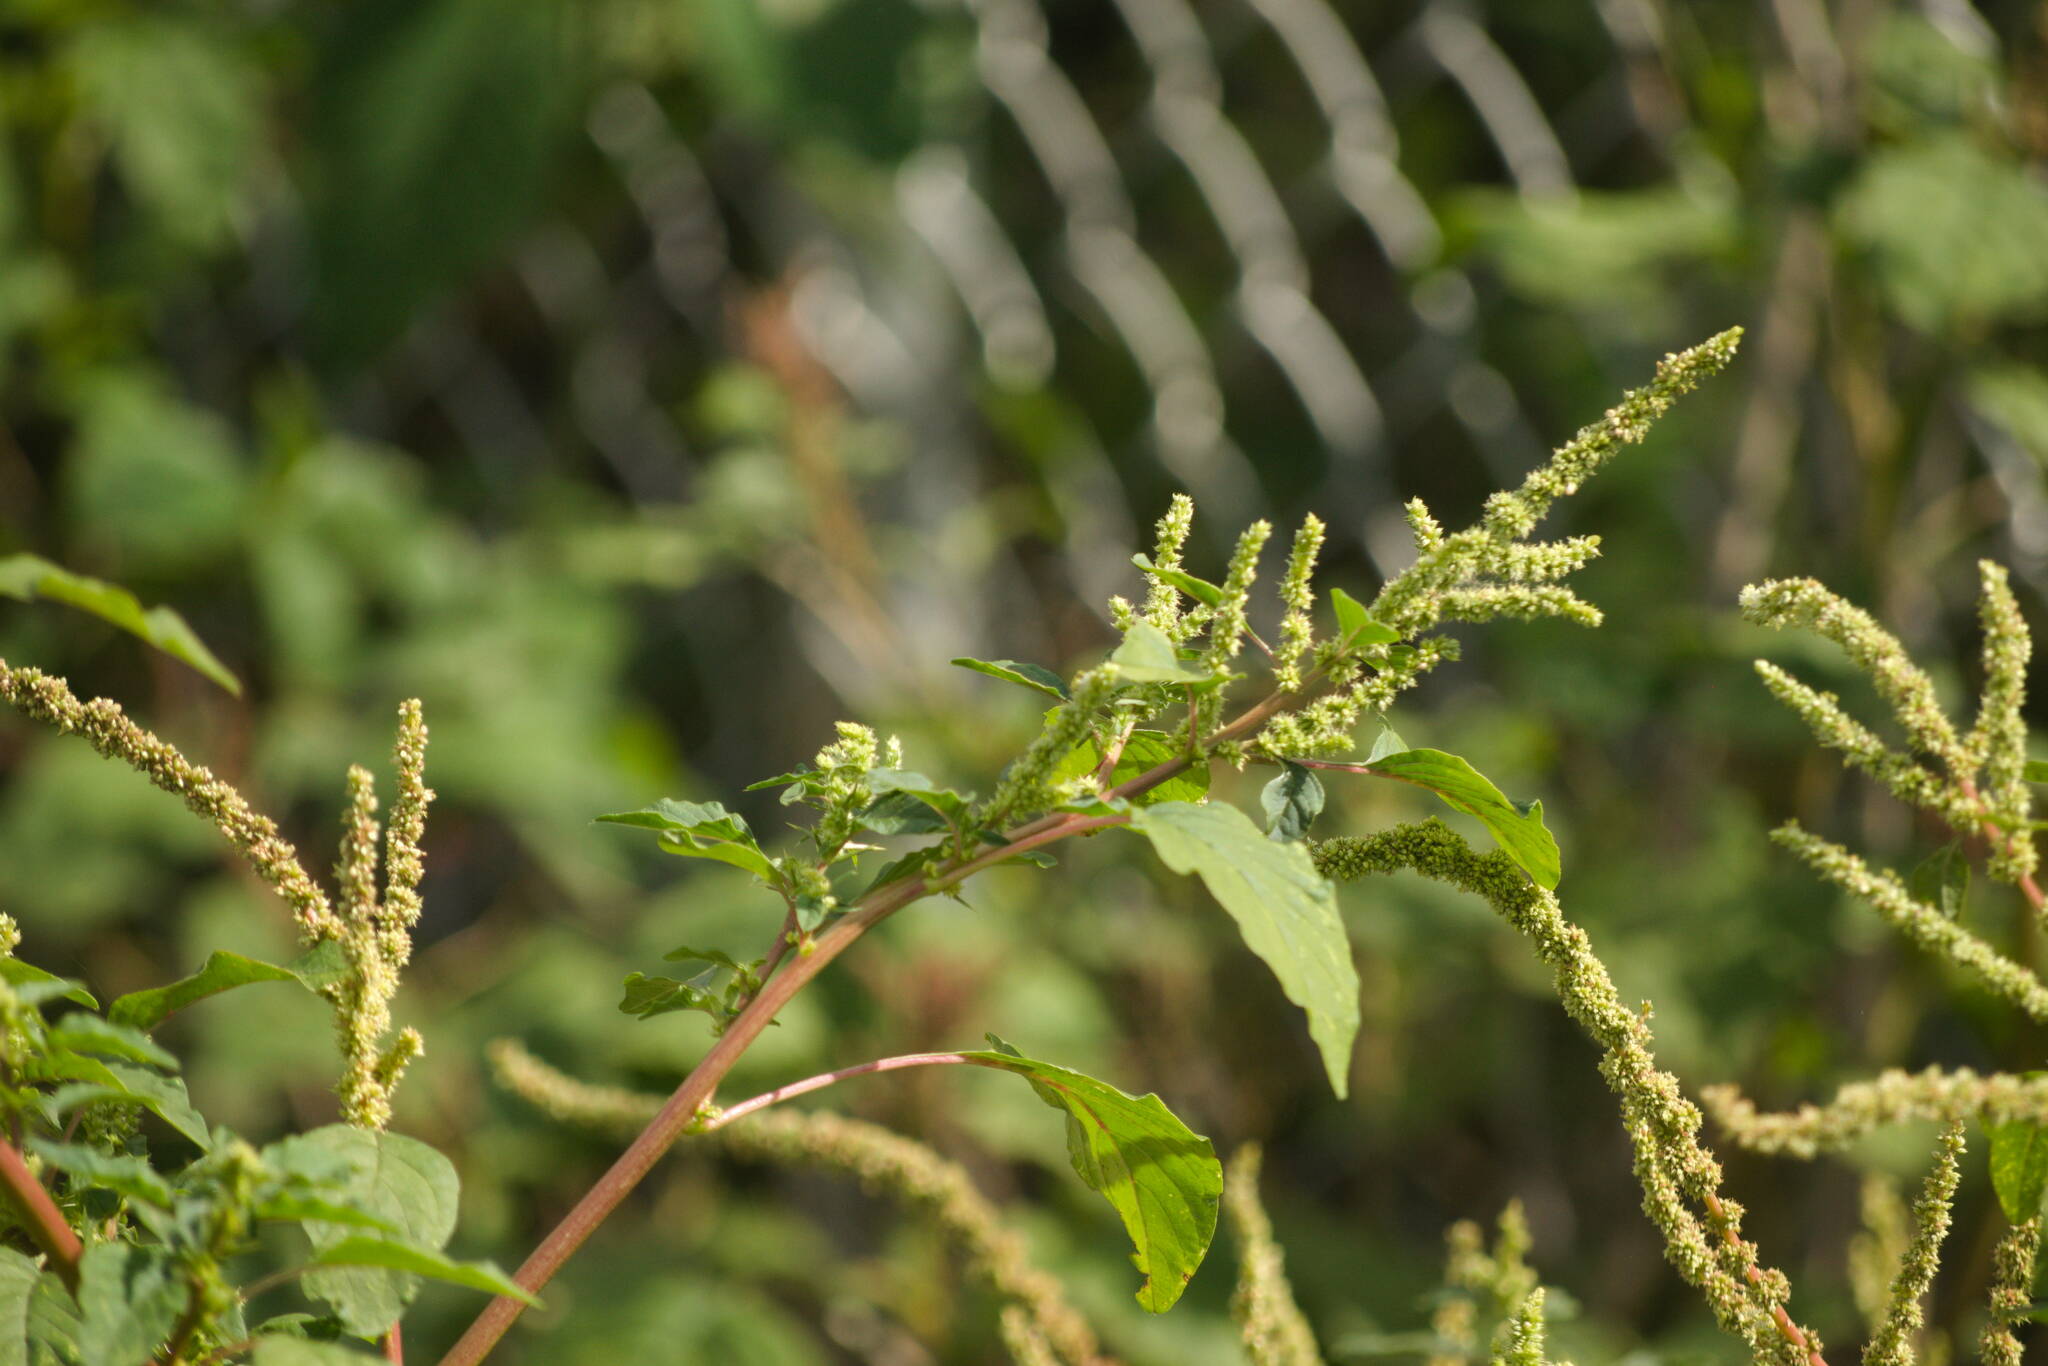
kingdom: Plantae
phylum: Tracheophyta
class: Magnoliopsida
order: Caryophyllales
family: Amaranthaceae
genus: Amaranthus
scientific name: Amaranthus spinosus
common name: Spiny amaranth
